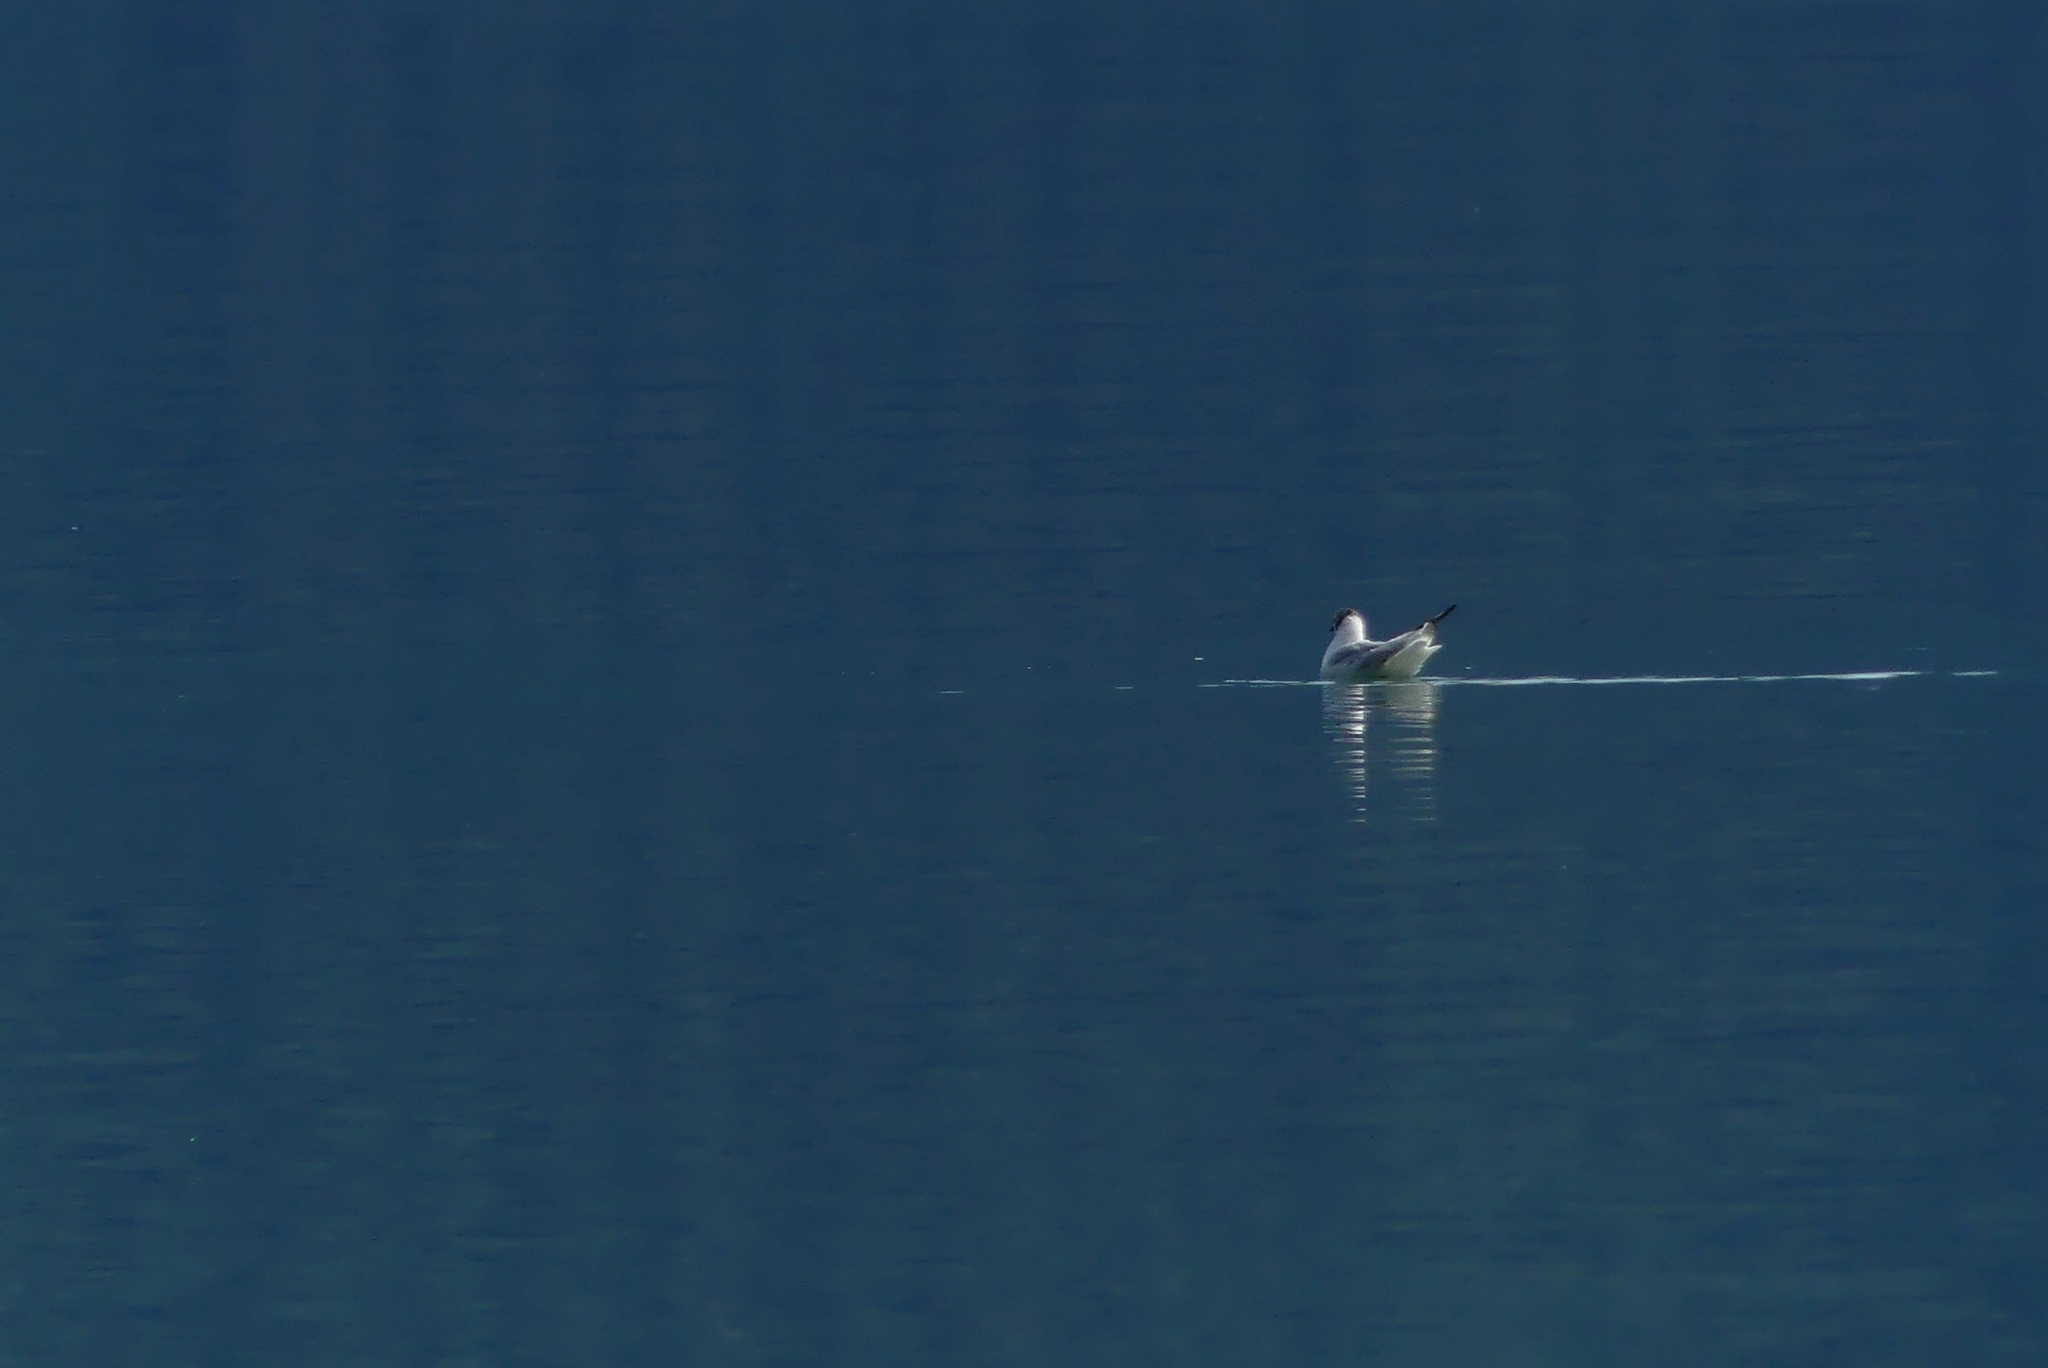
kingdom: Animalia
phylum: Chordata
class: Aves
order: Charadriiformes
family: Laridae
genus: Chroicocephalus
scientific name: Chroicocephalus philadelphia
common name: Bonaparte's gull
